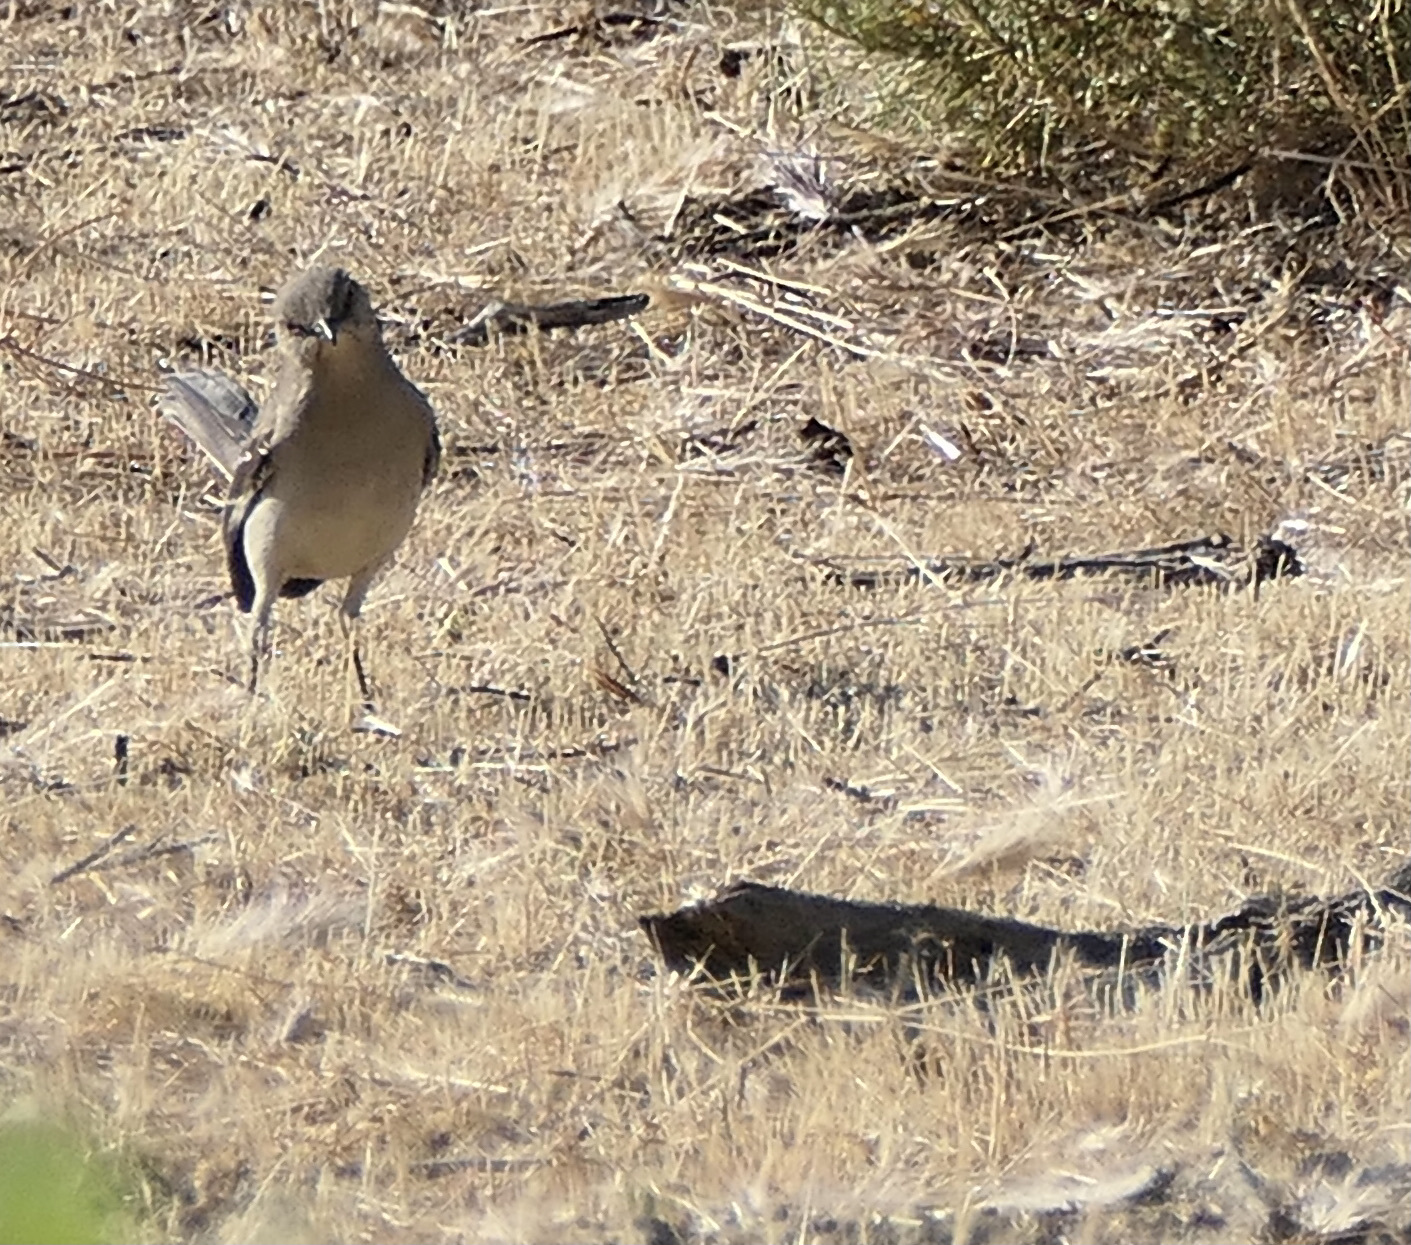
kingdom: Animalia
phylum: Chordata
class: Aves
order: Passeriformes
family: Mimidae
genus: Mimus
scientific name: Mimus polyglottos
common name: Northern mockingbird
